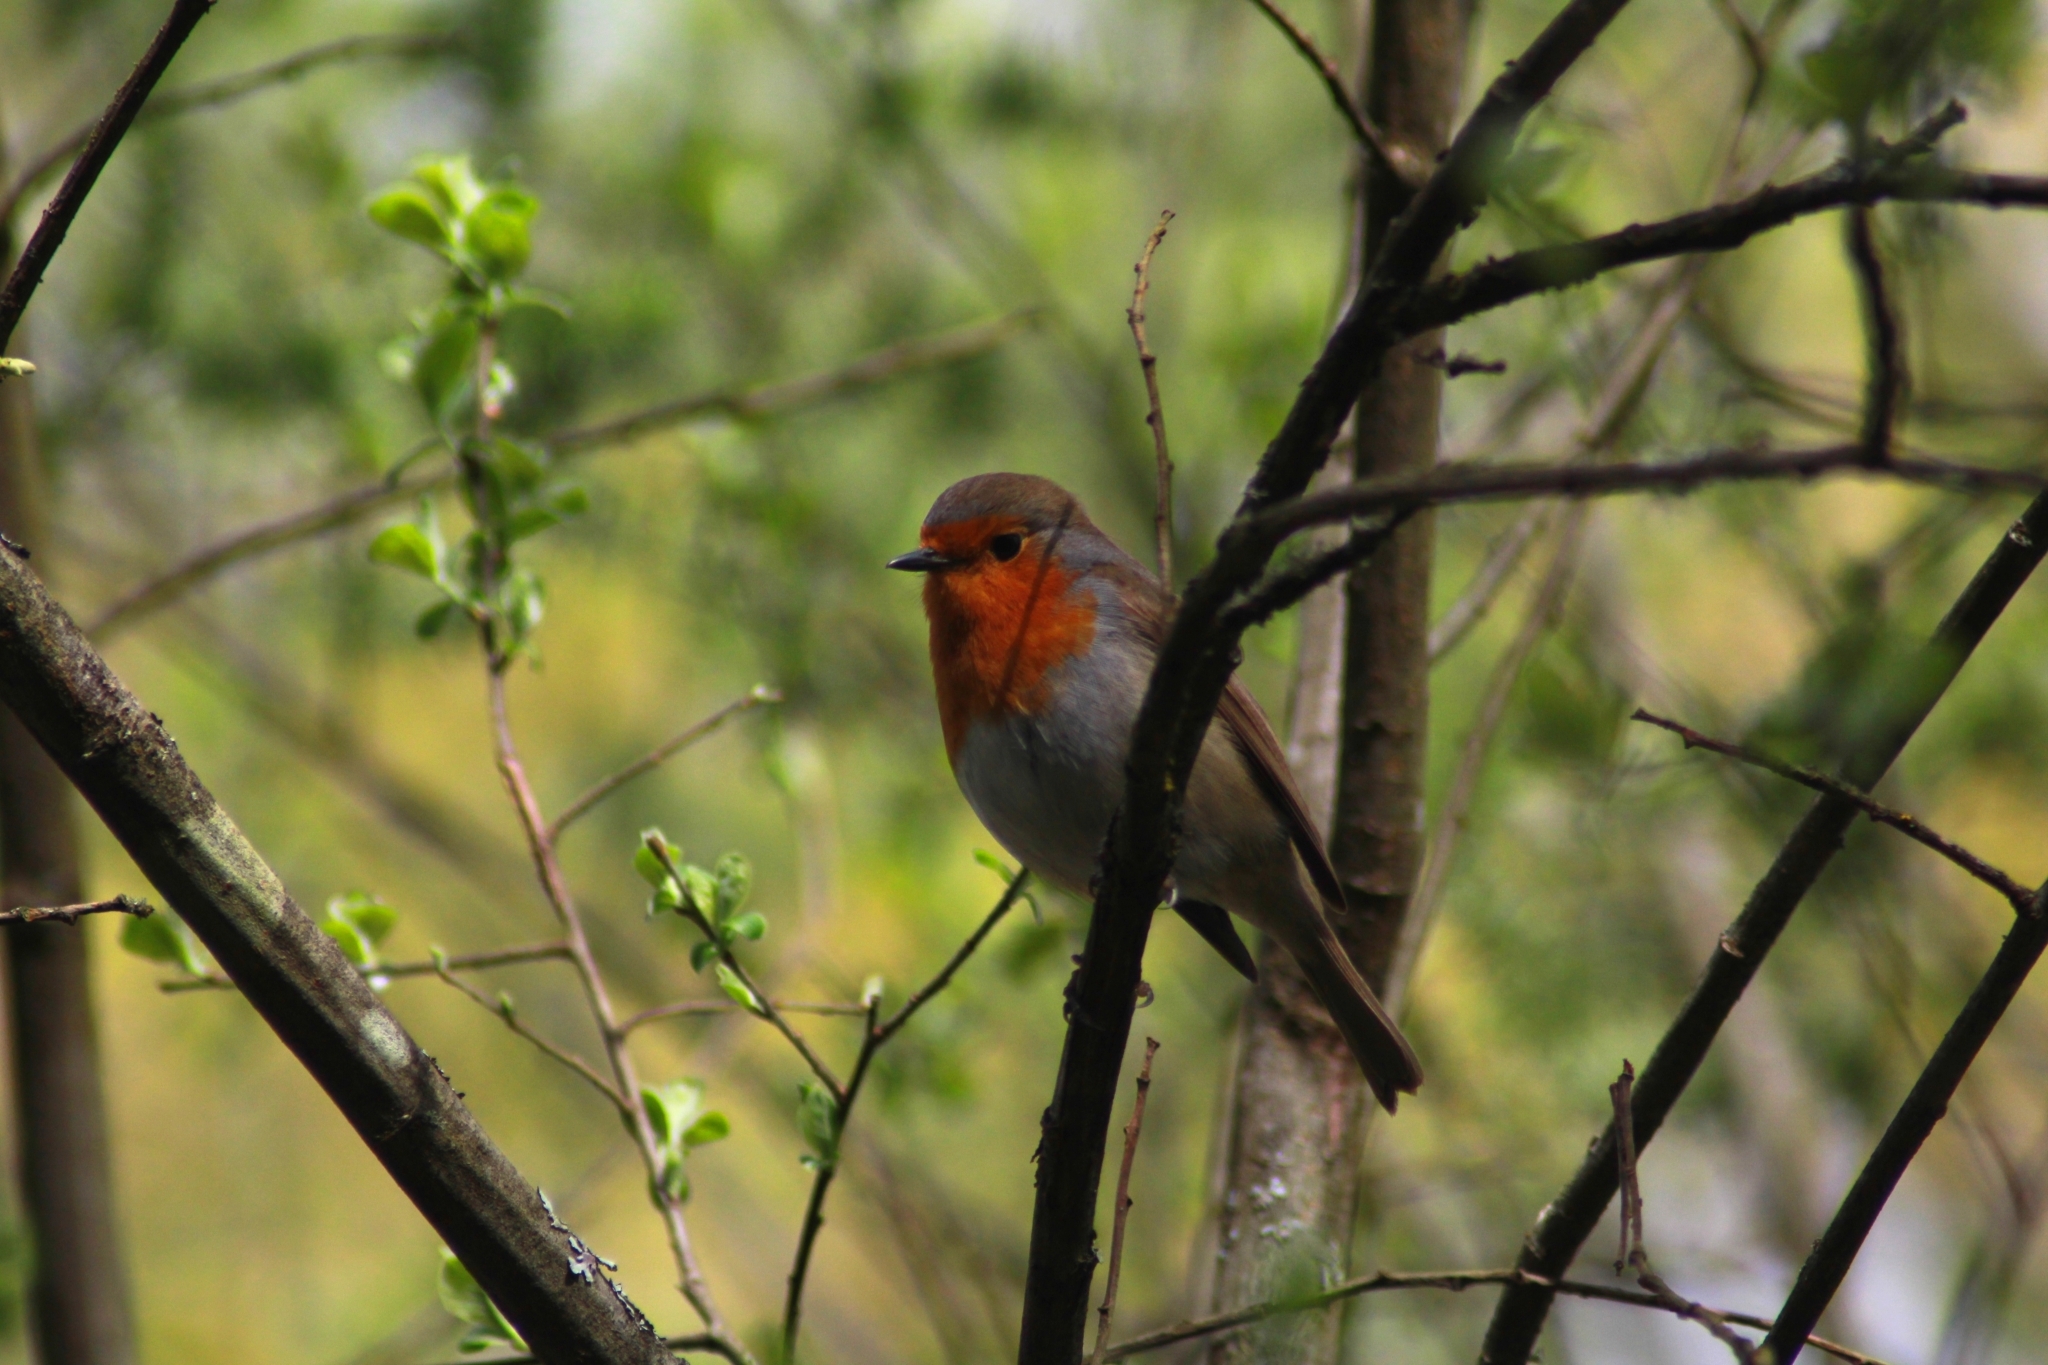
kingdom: Animalia
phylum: Chordata
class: Aves
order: Passeriformes
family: Muscicapidae
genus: Erithacus
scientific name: Erithacus rubecula
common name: European robin
